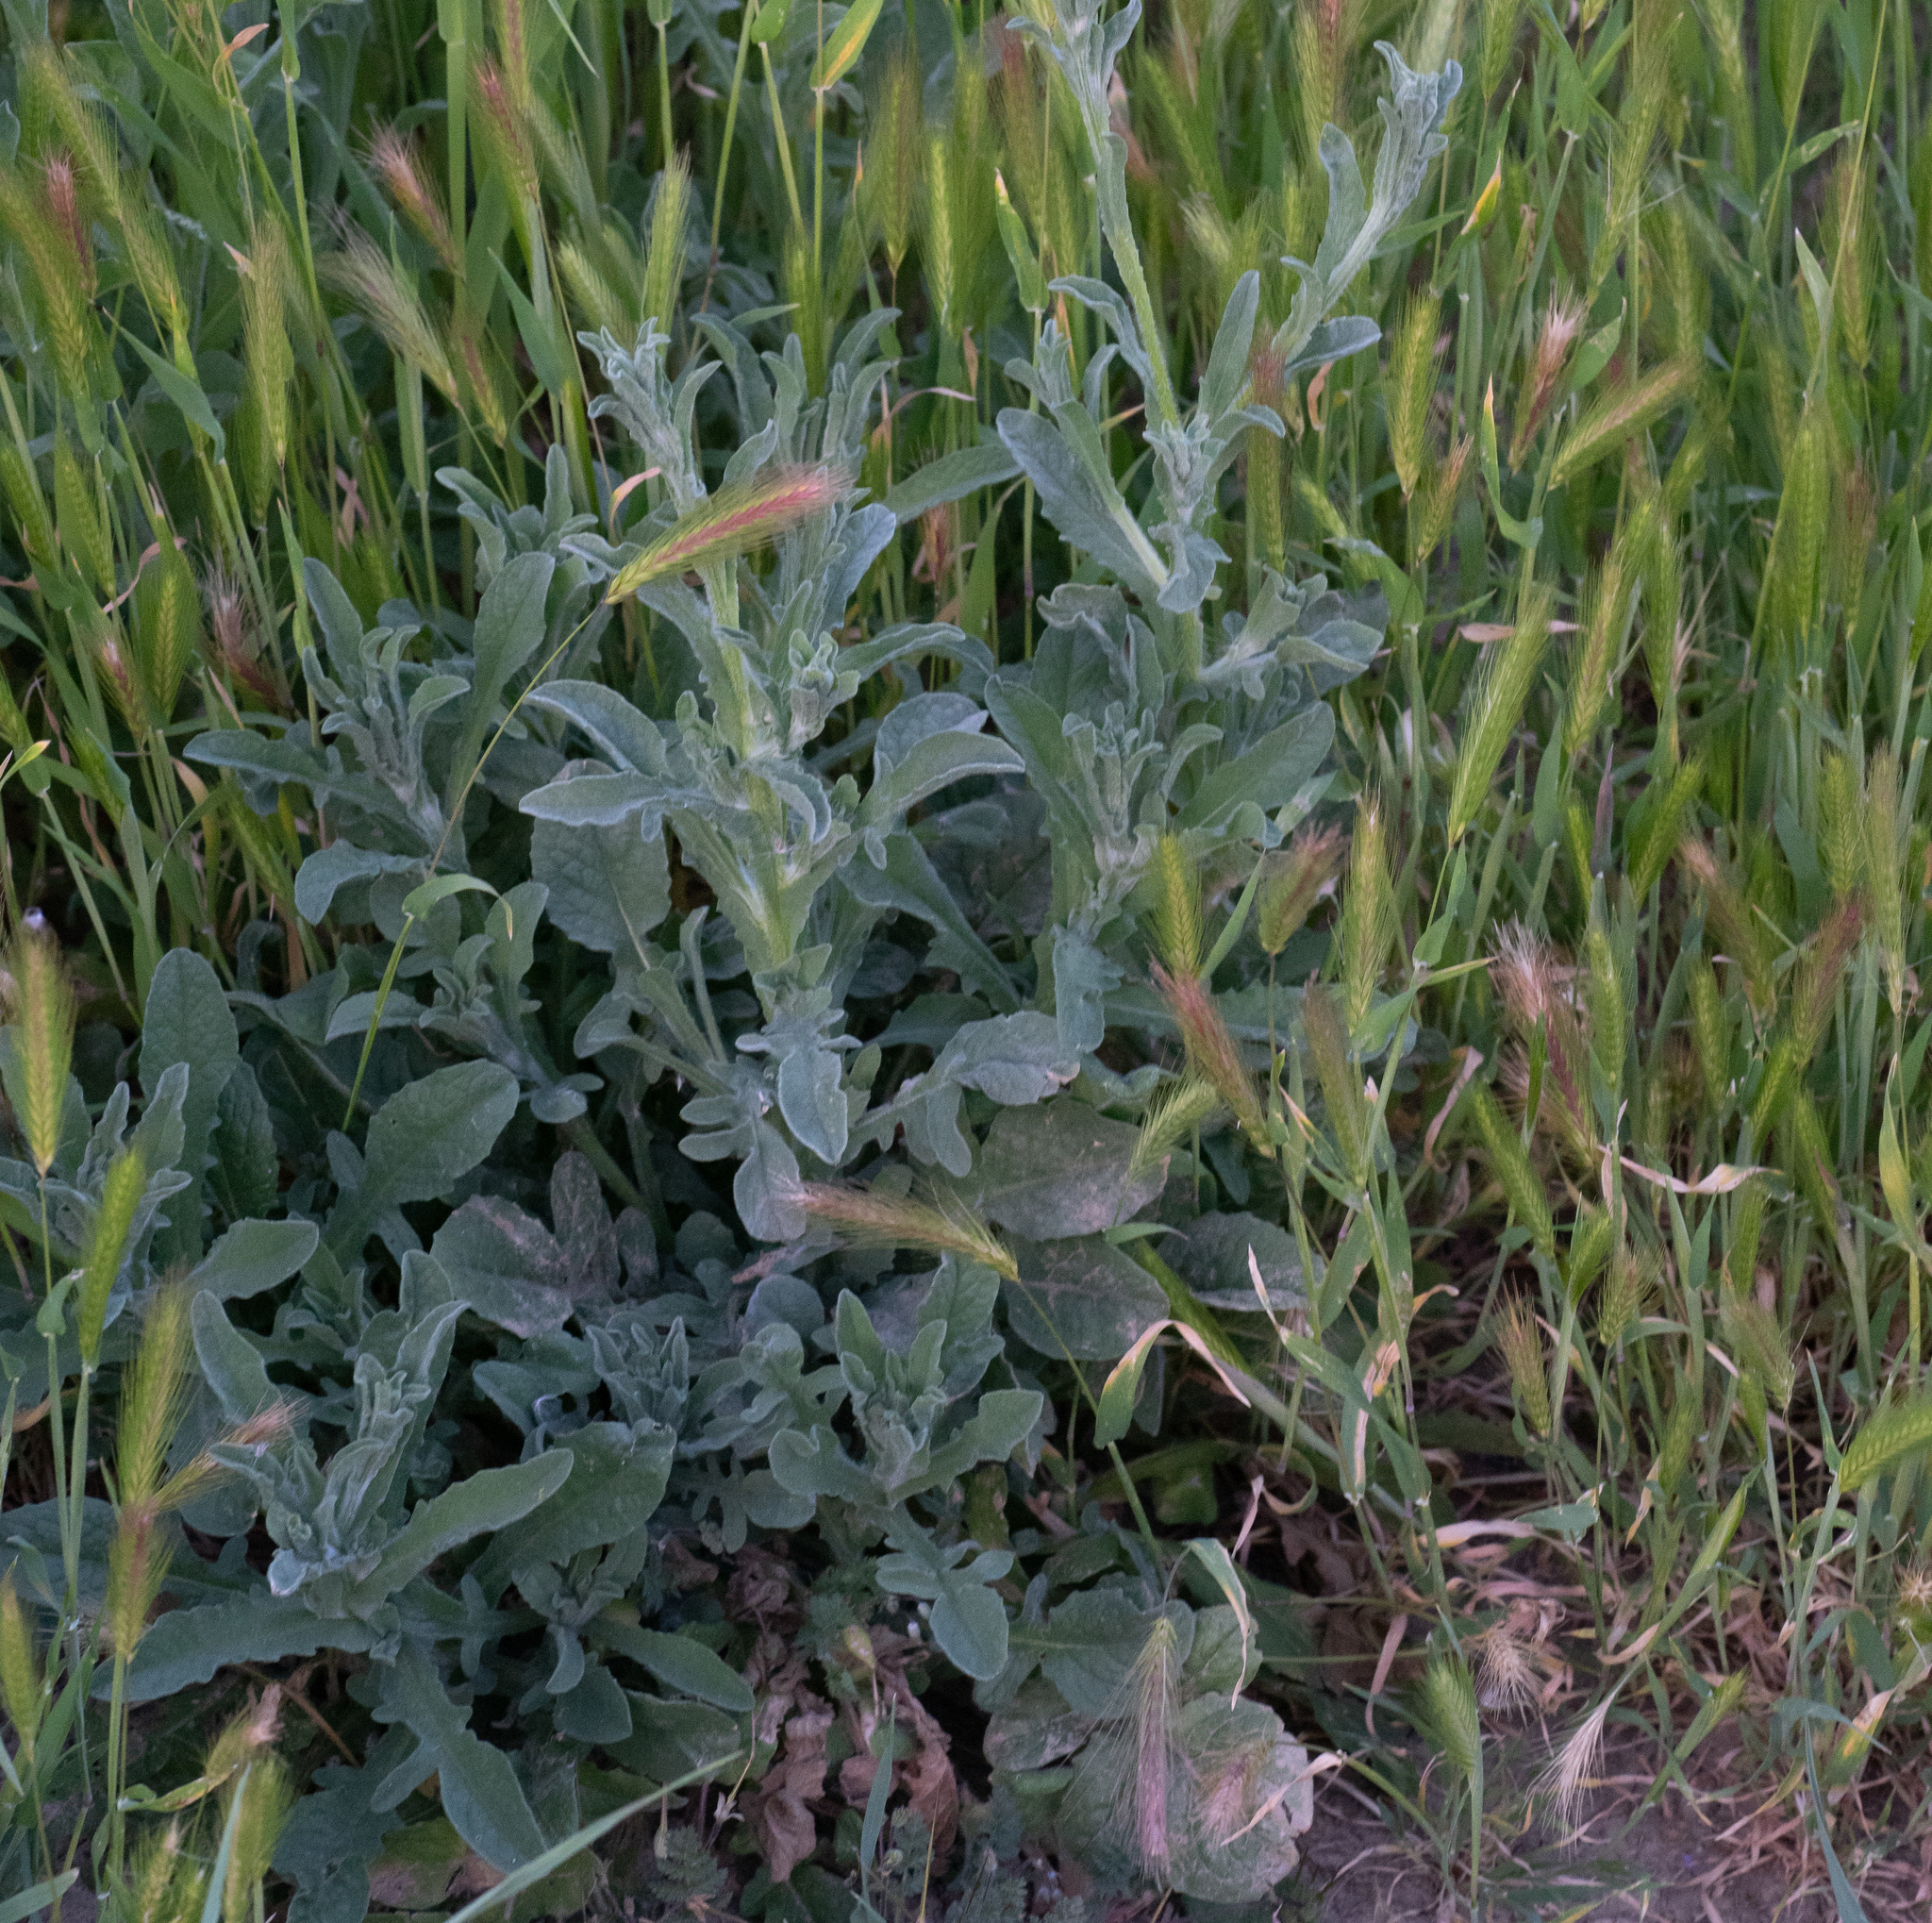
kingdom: Plantae
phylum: Tracheophyta
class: Magnoliopsida
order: Asterales
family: Asteraceae
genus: Centaurea
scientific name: Centaurea melitensis
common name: Maltese star-thistle
